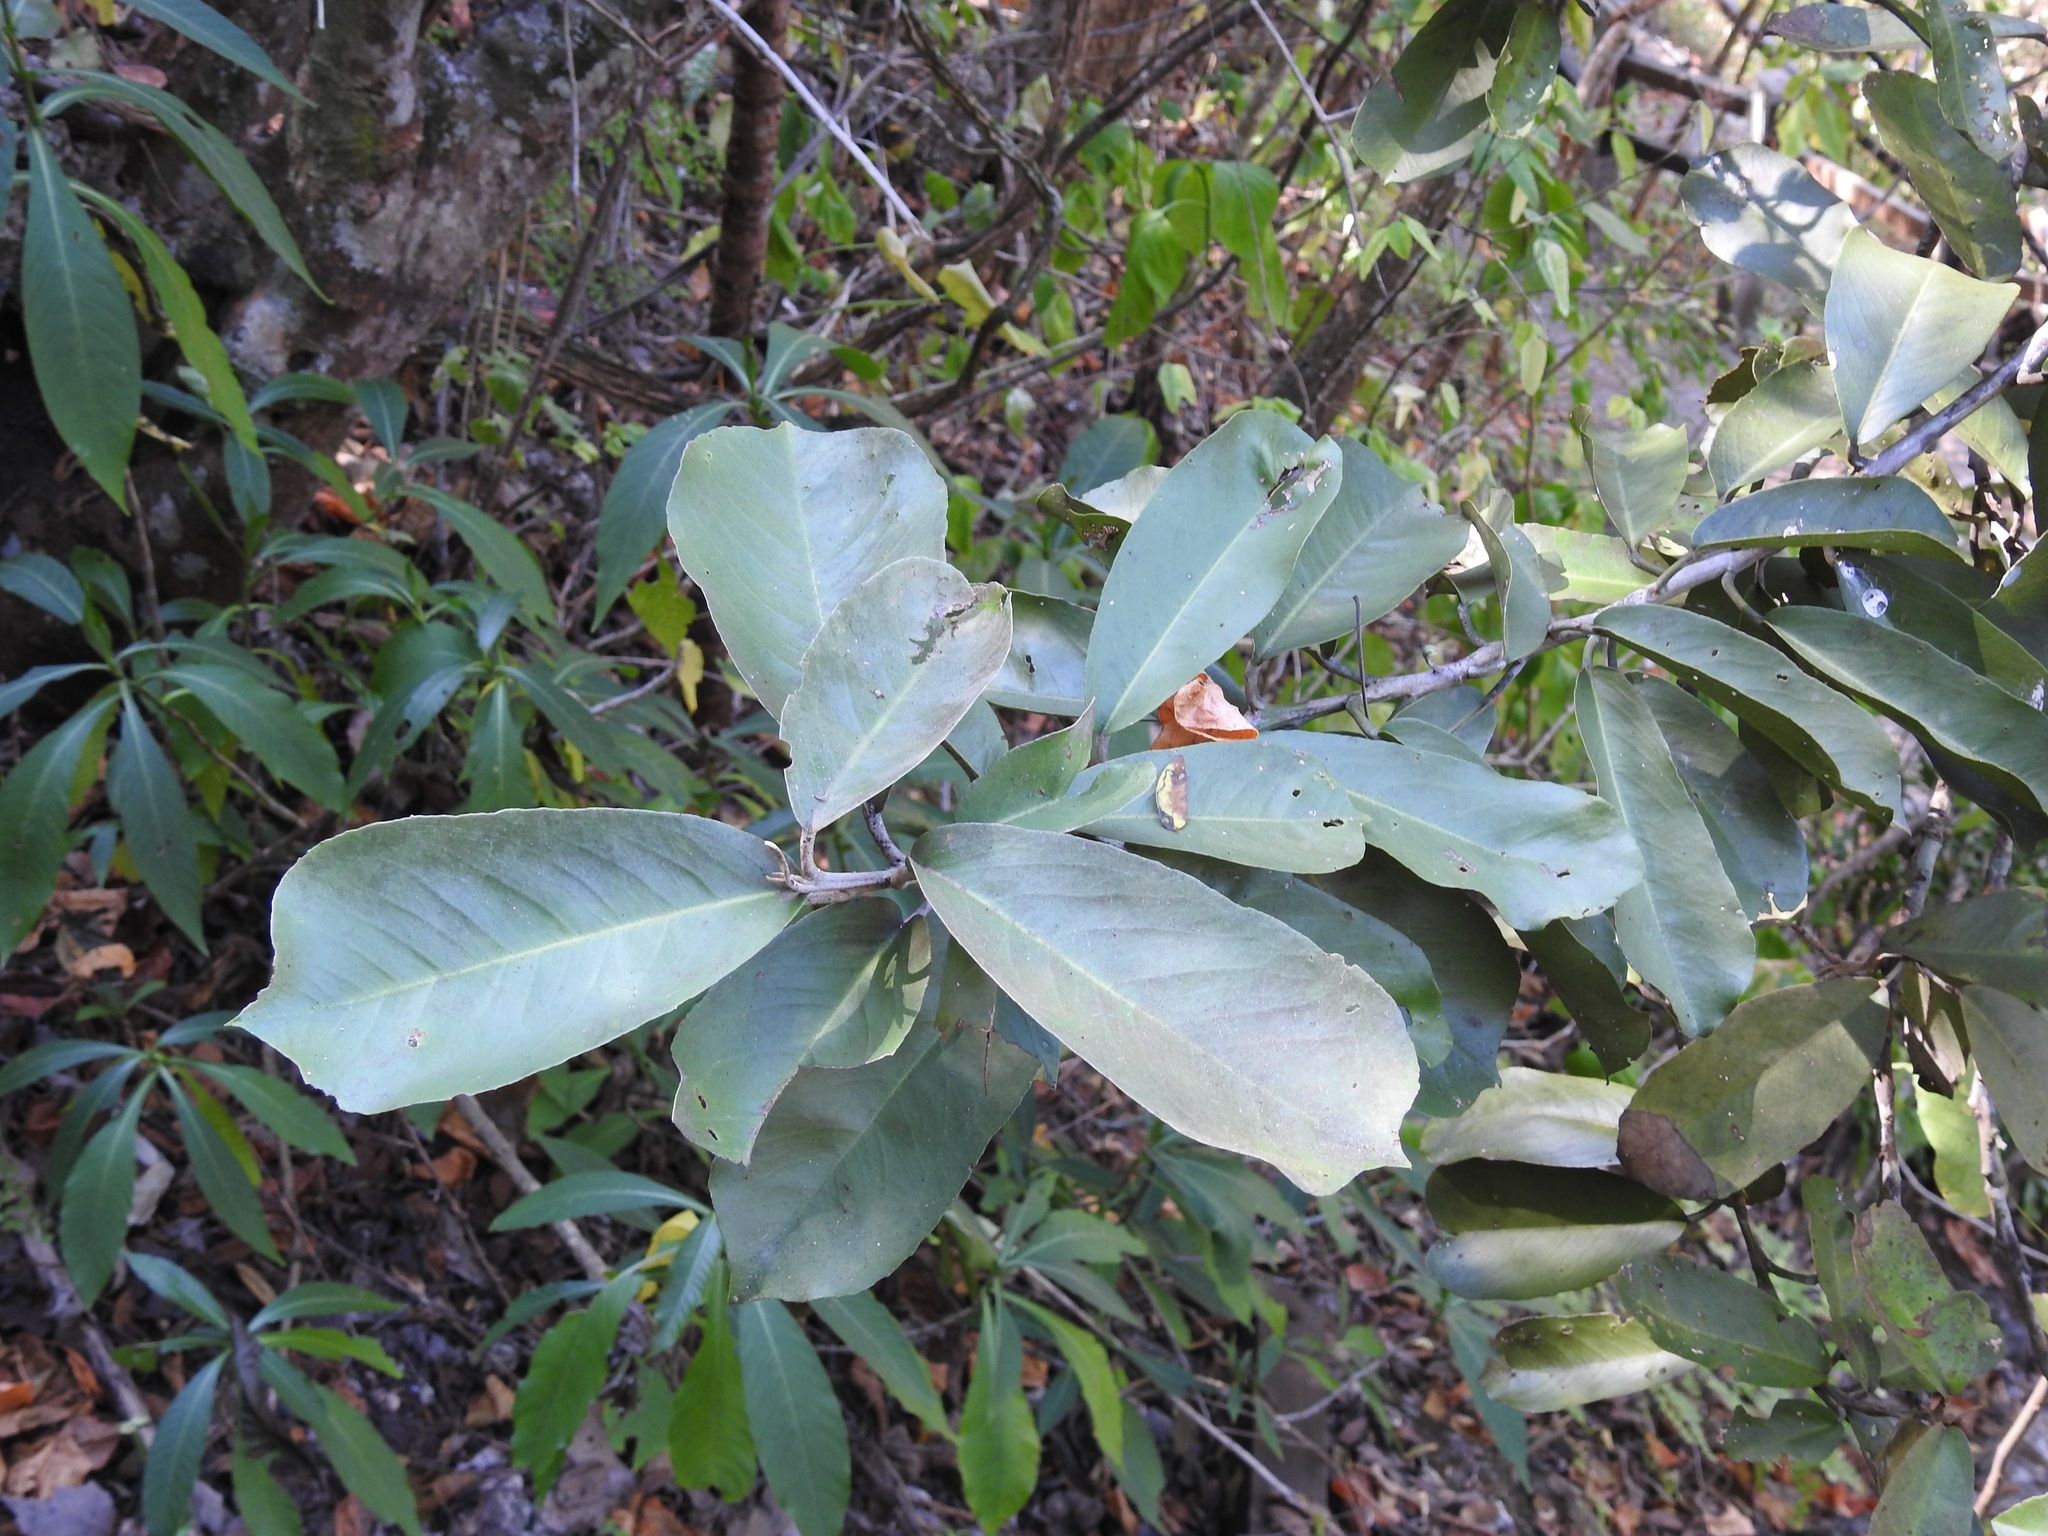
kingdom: Plantae
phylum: Tracheophyta
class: Magnoliopsida
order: Brassicales
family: Capparaceae
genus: Quadrella
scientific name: Quadrella indica
